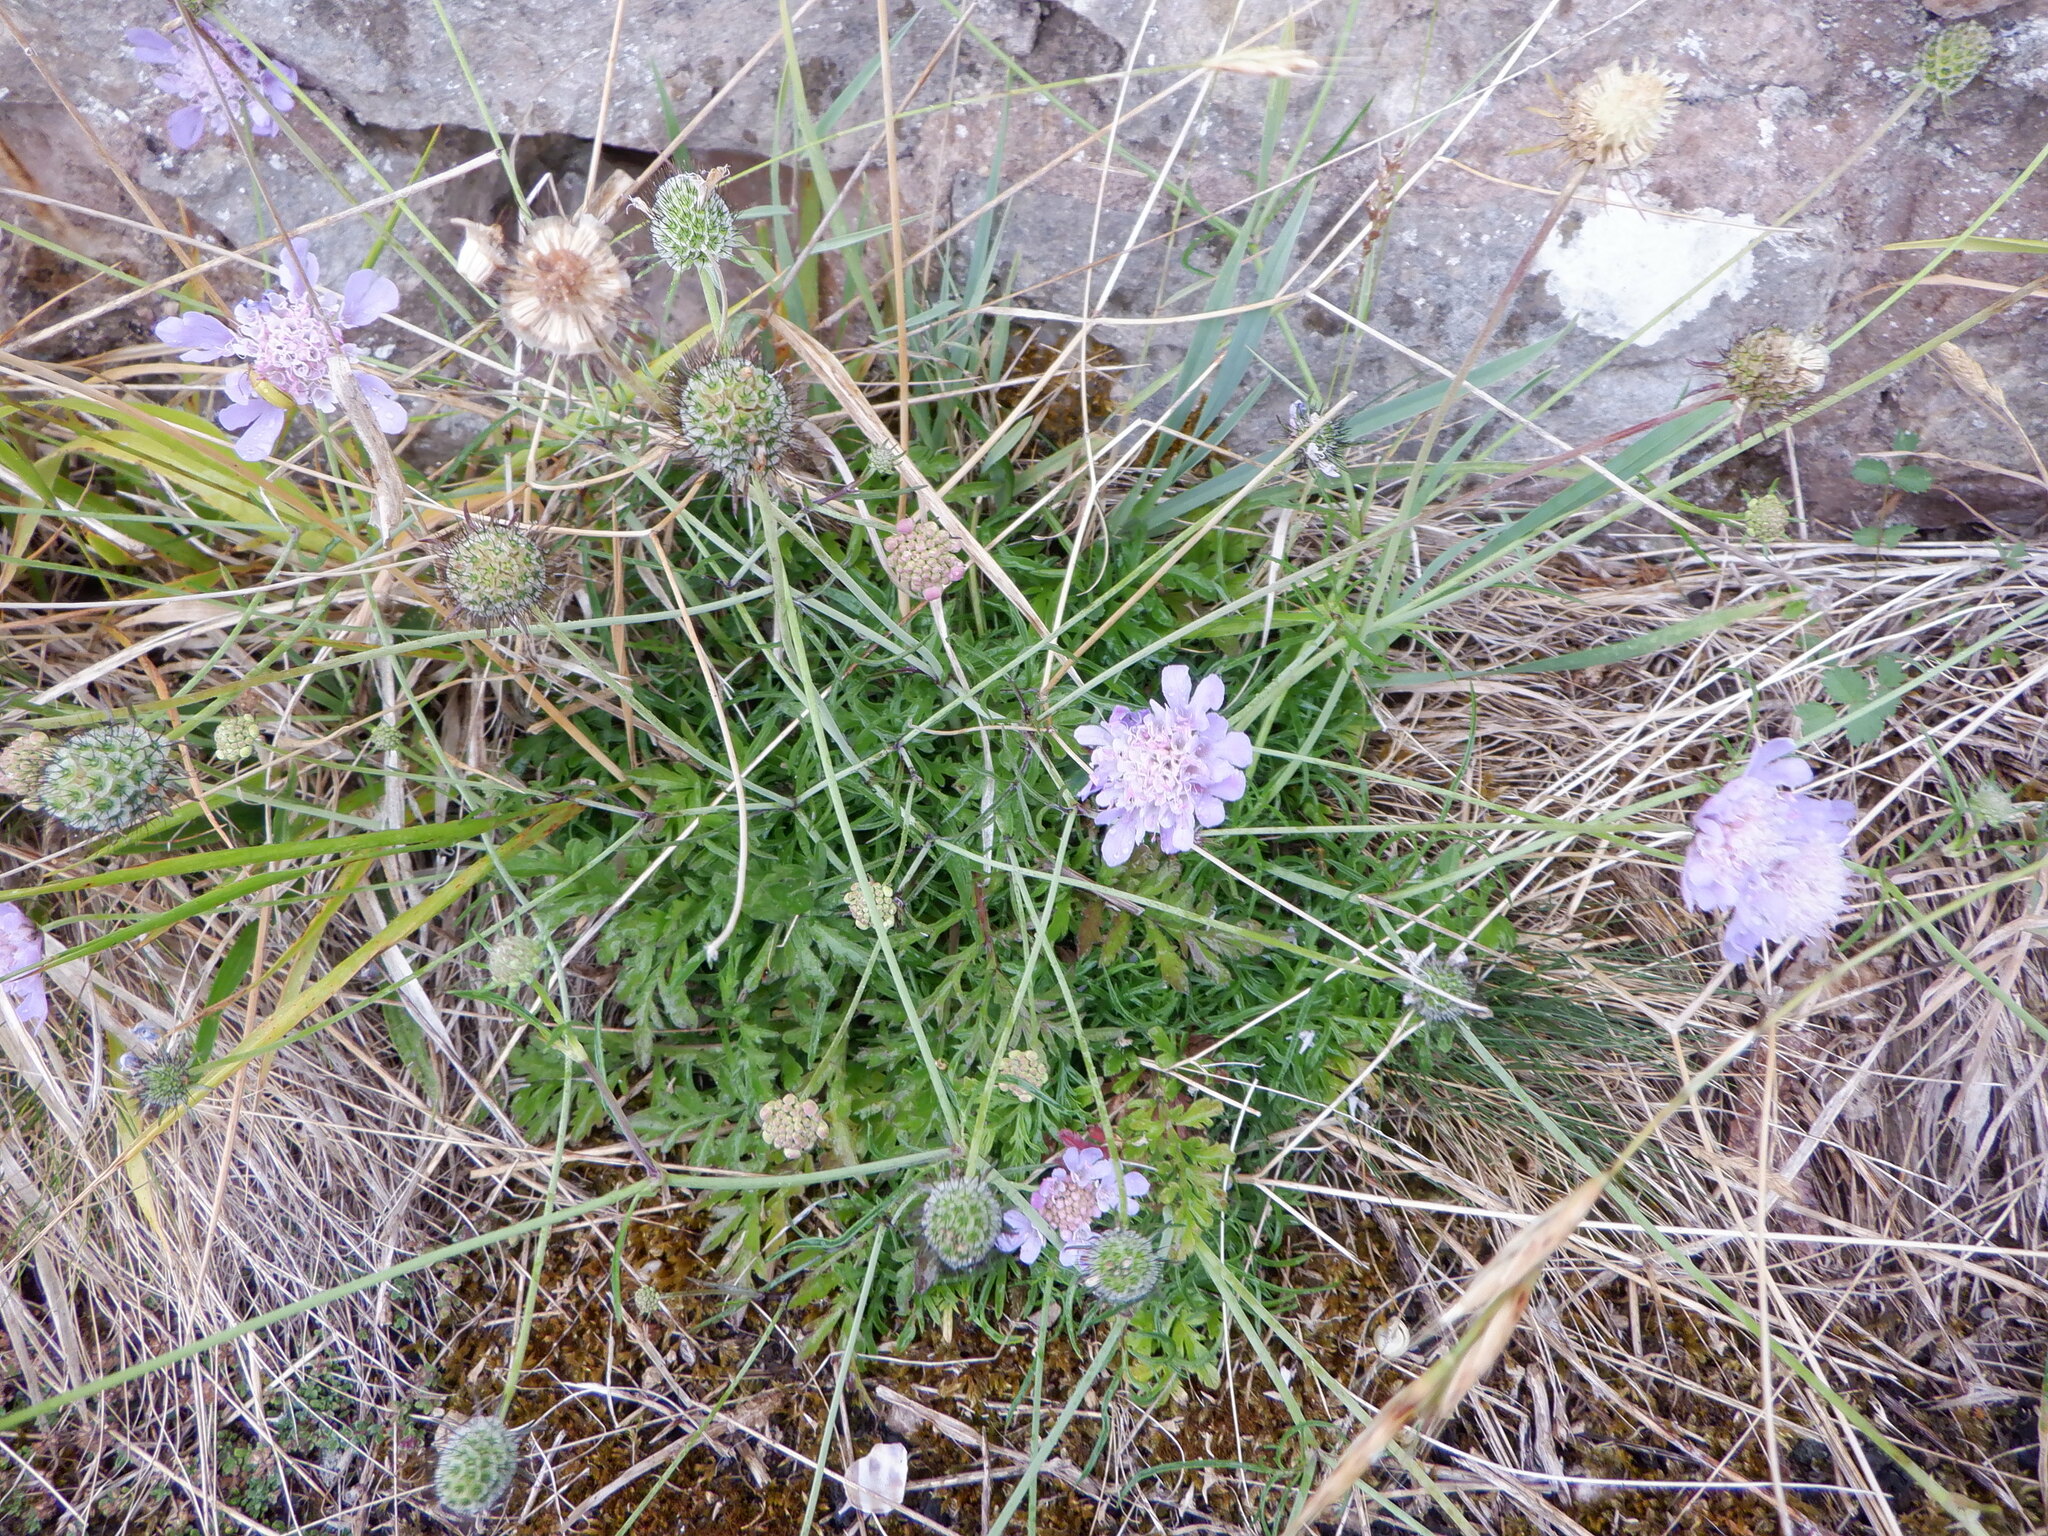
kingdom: Plantae
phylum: Tracheophyta
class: Magnoliopsida
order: Dipsacales
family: Caprifoliaceae
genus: Scabiosa
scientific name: Scabiosa columbaria
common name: Small scabious
